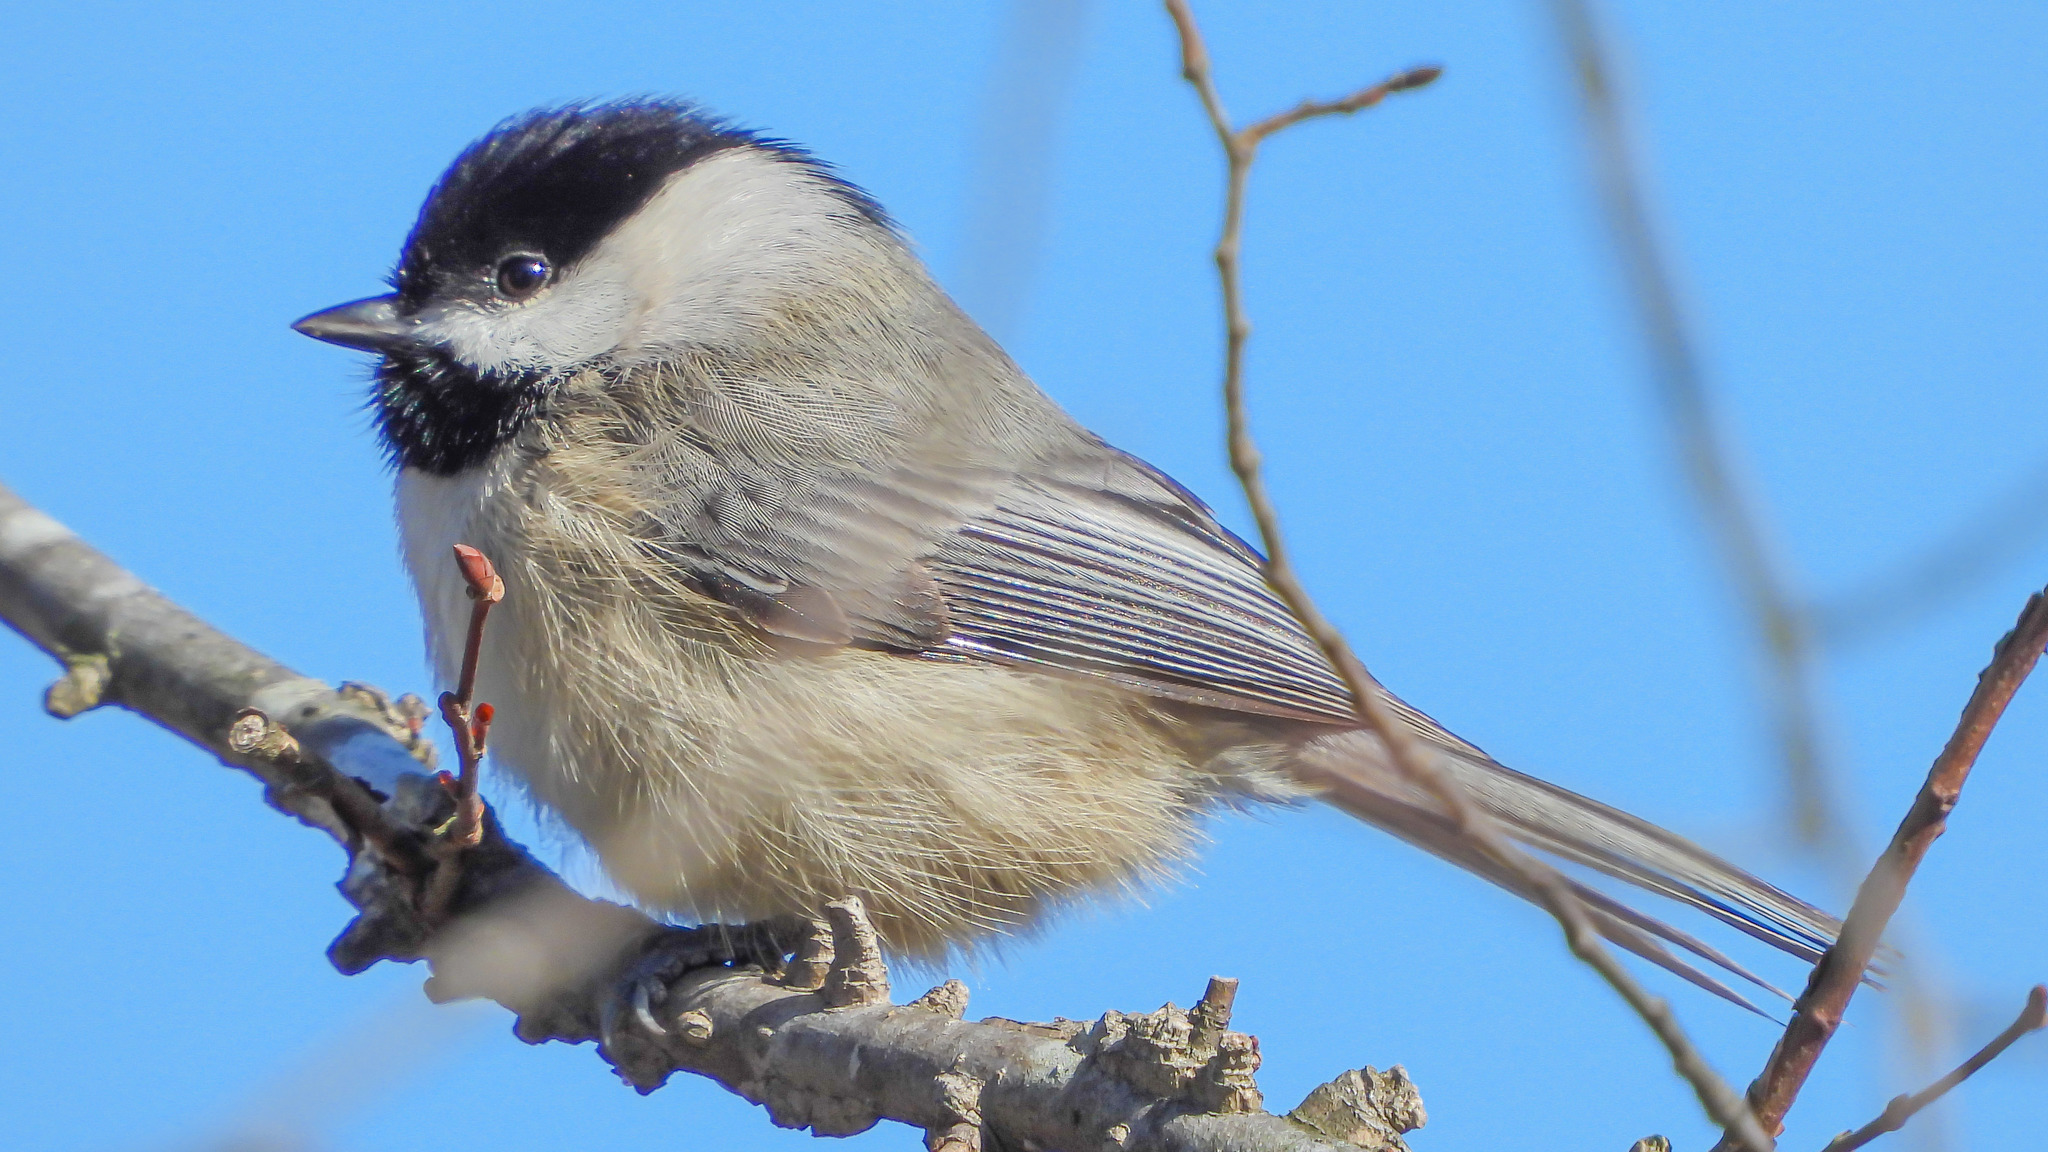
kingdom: Animalia
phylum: Chordata
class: Aves
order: Passeriformes
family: Paridae
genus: Poecile
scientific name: Poecile carolinensis
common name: Carolina chickadee
